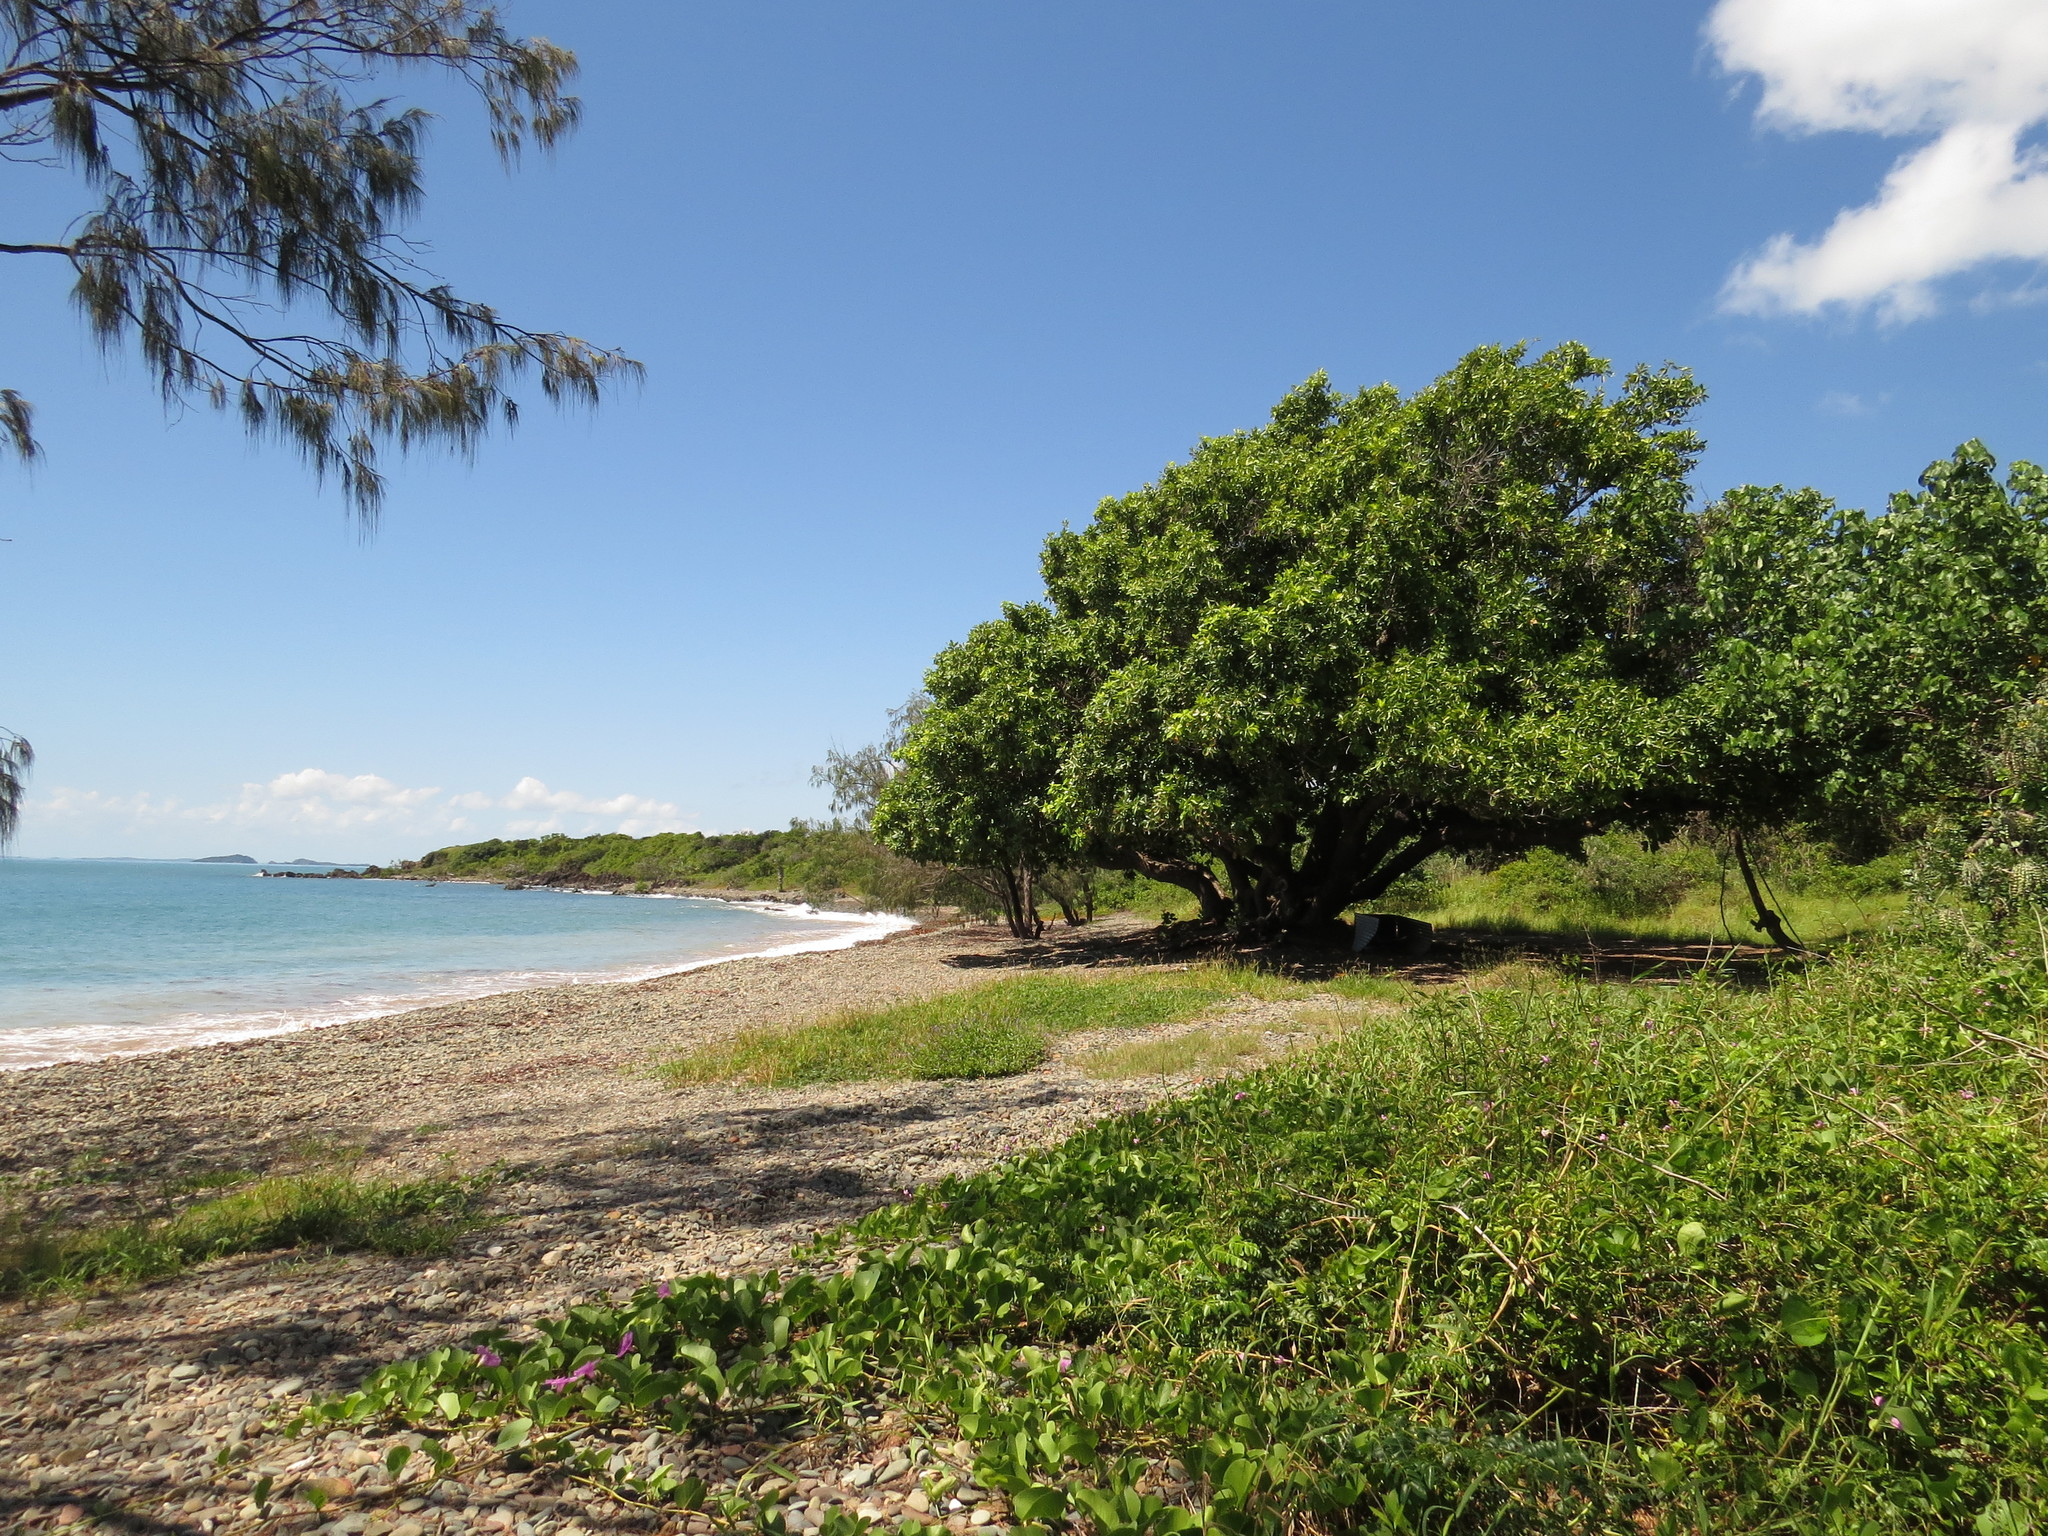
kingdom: Plantae
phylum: Tracheophyta
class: Magnoliopsida
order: Malpighiales
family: Calophyllaceae
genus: Calophyllum
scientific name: Calophyllum inophyllum
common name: Alexandrian laurel
